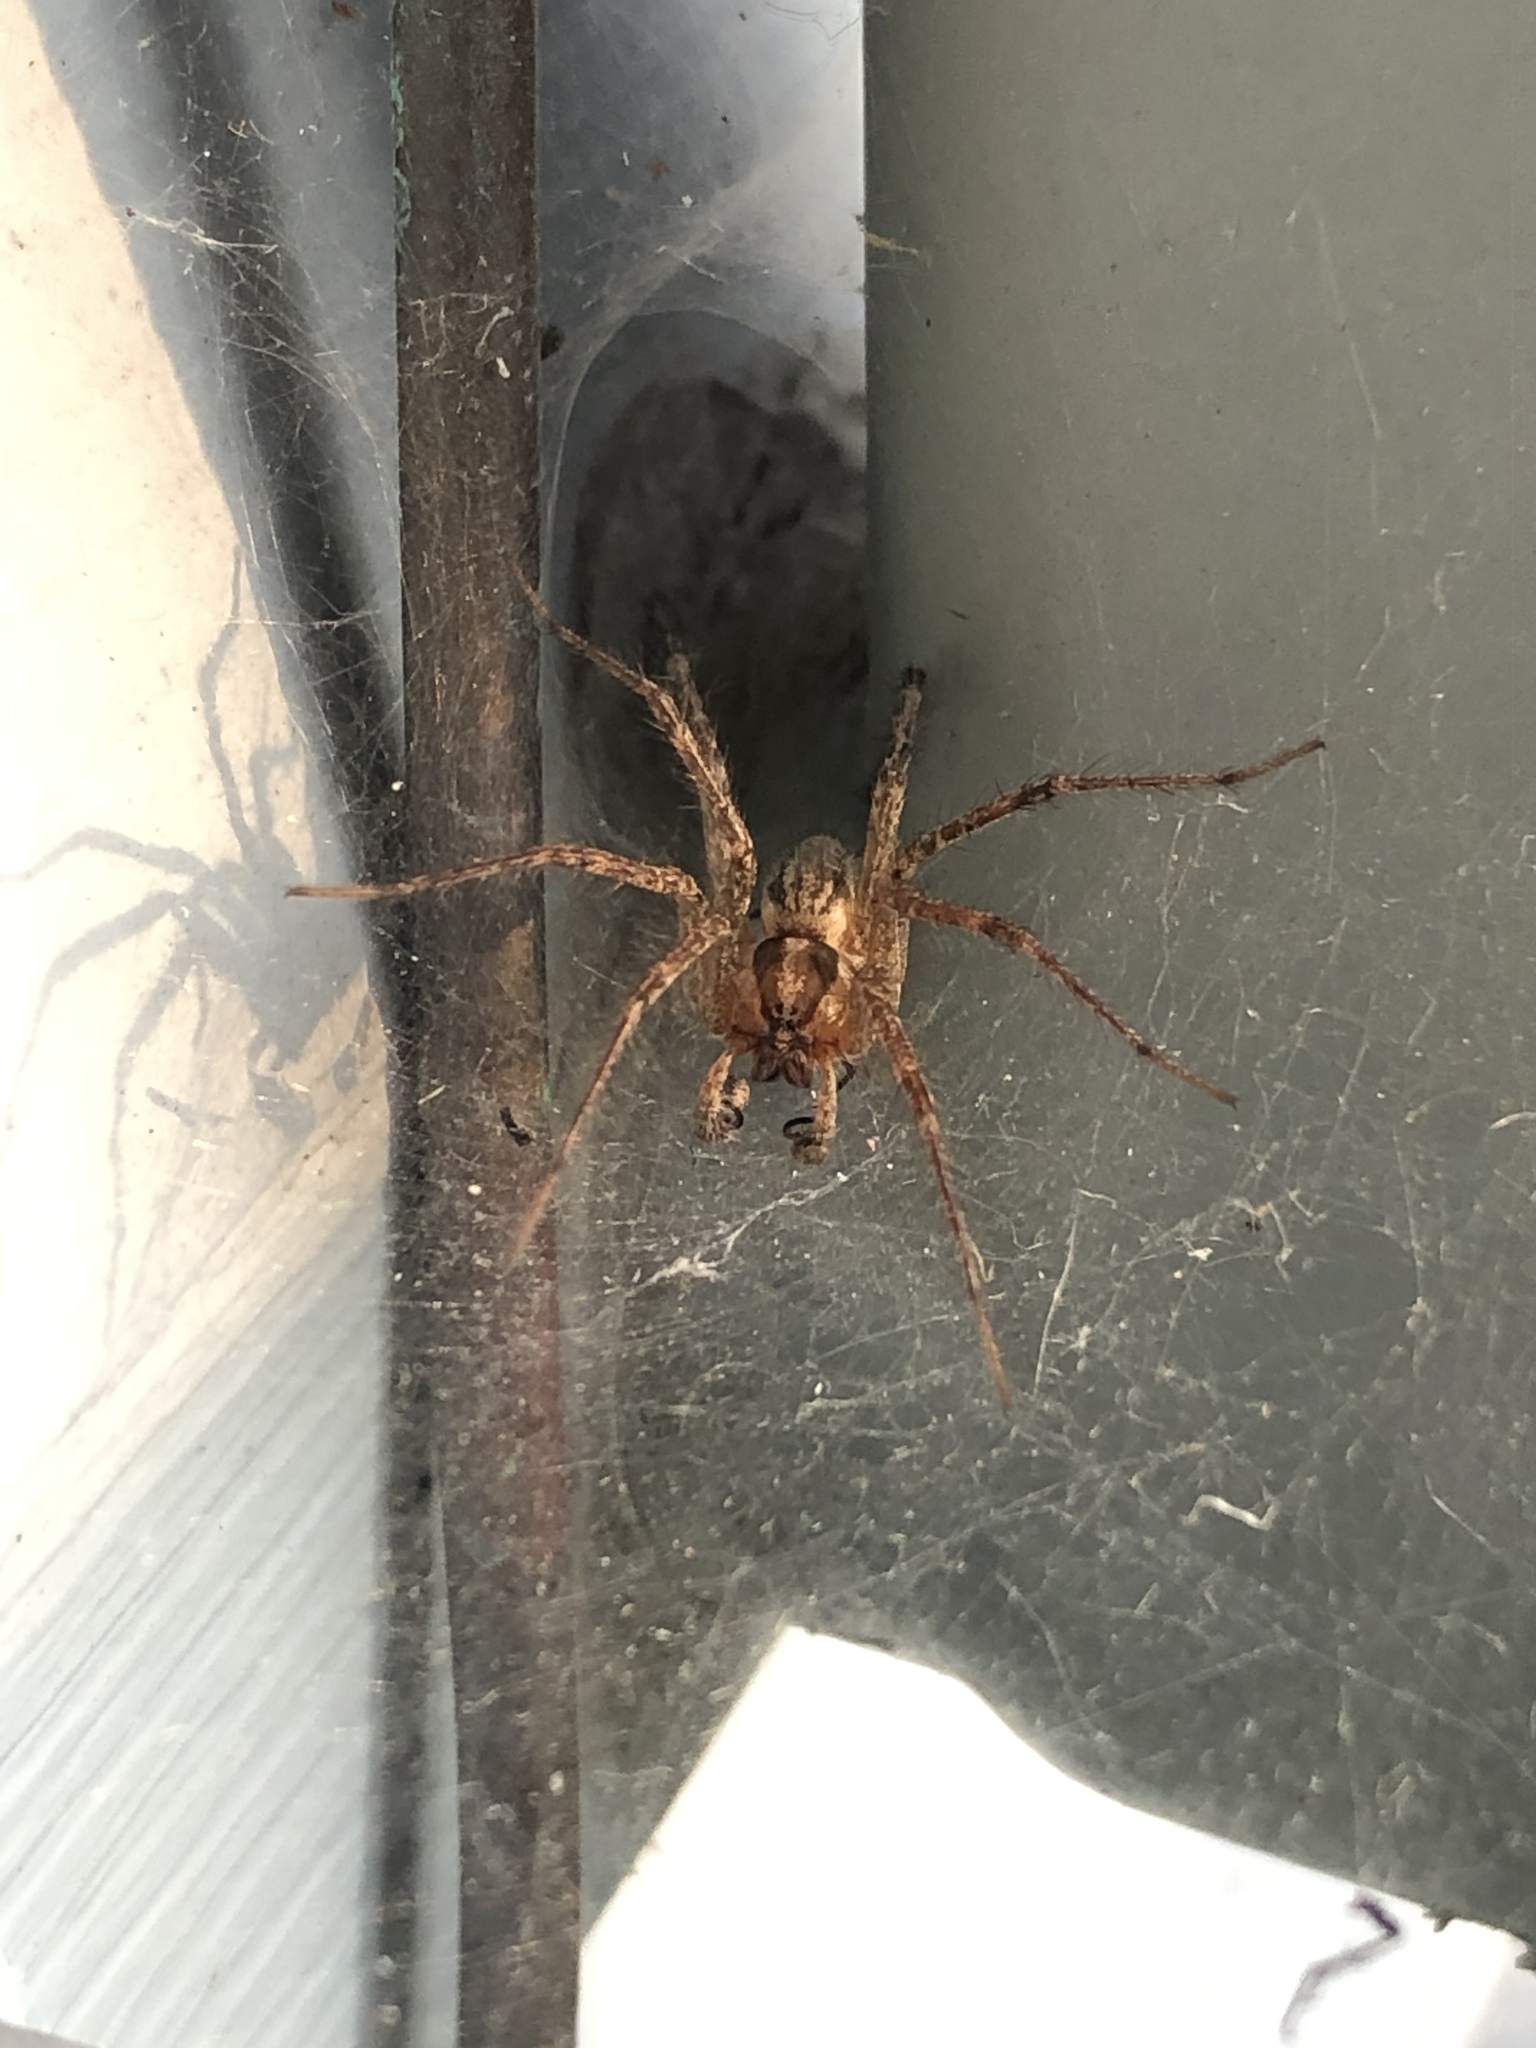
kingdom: Animalia
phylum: Arthropoda
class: Arachnida
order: Araneae
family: Agelenidae
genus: Agelenopsis
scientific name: Agelenopsis
